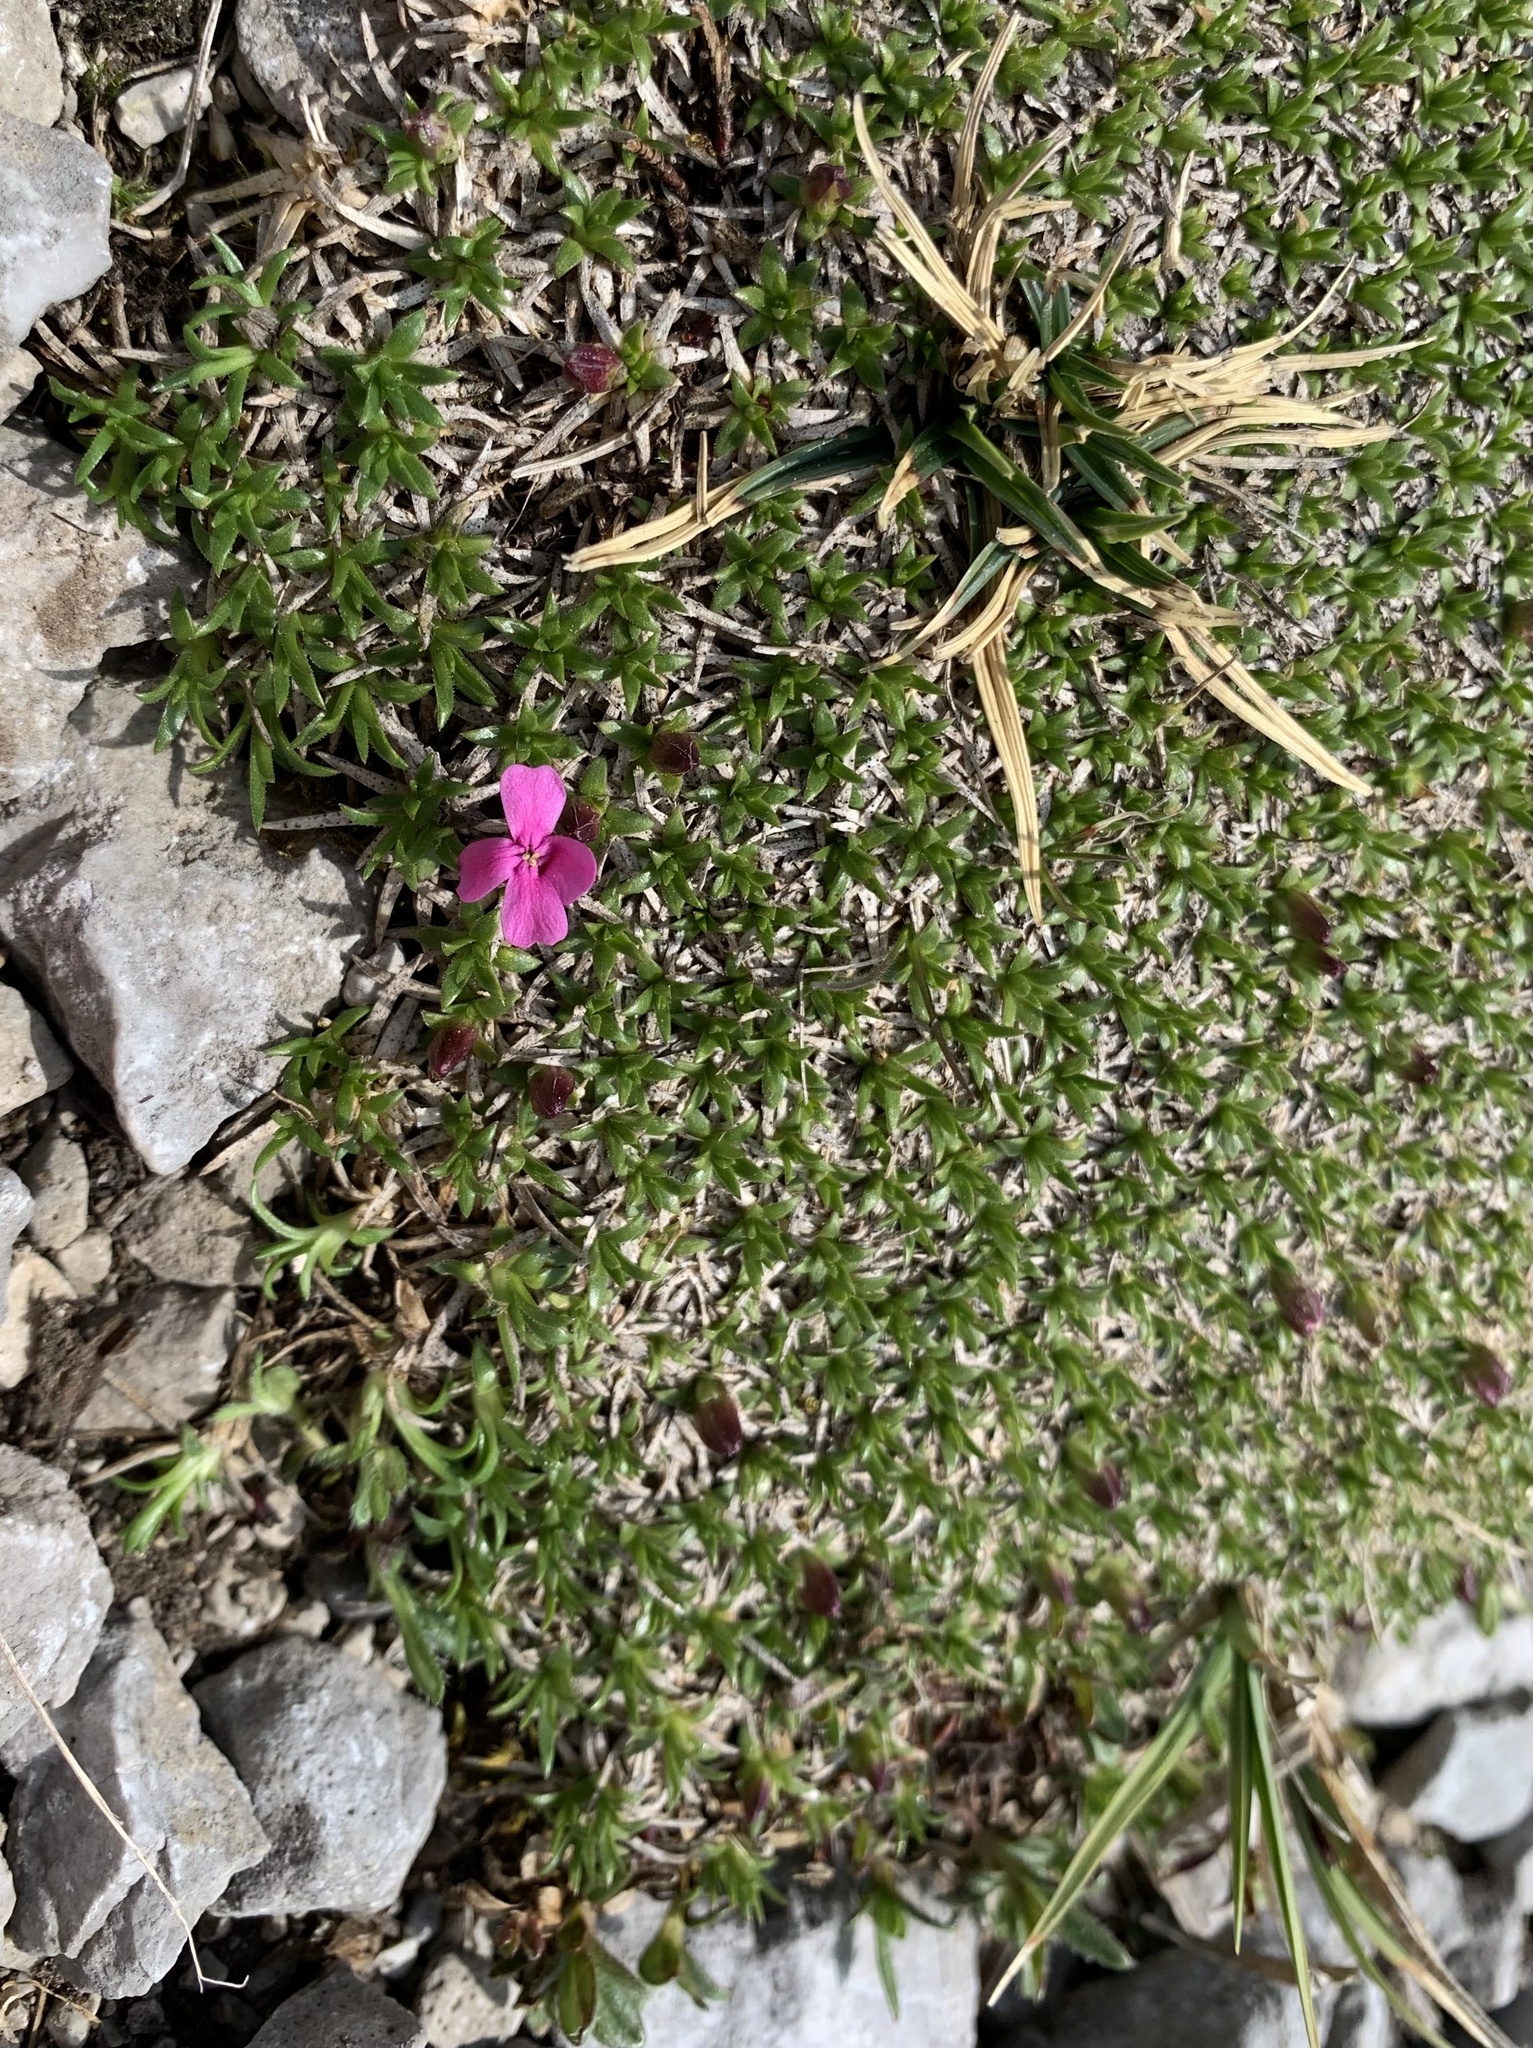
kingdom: Plantae
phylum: Tracheophyta
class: Magnoliopsida
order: Caryophyllales
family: Caryophyllaceae
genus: Silene
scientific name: Silene acaulis
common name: Moss campion
